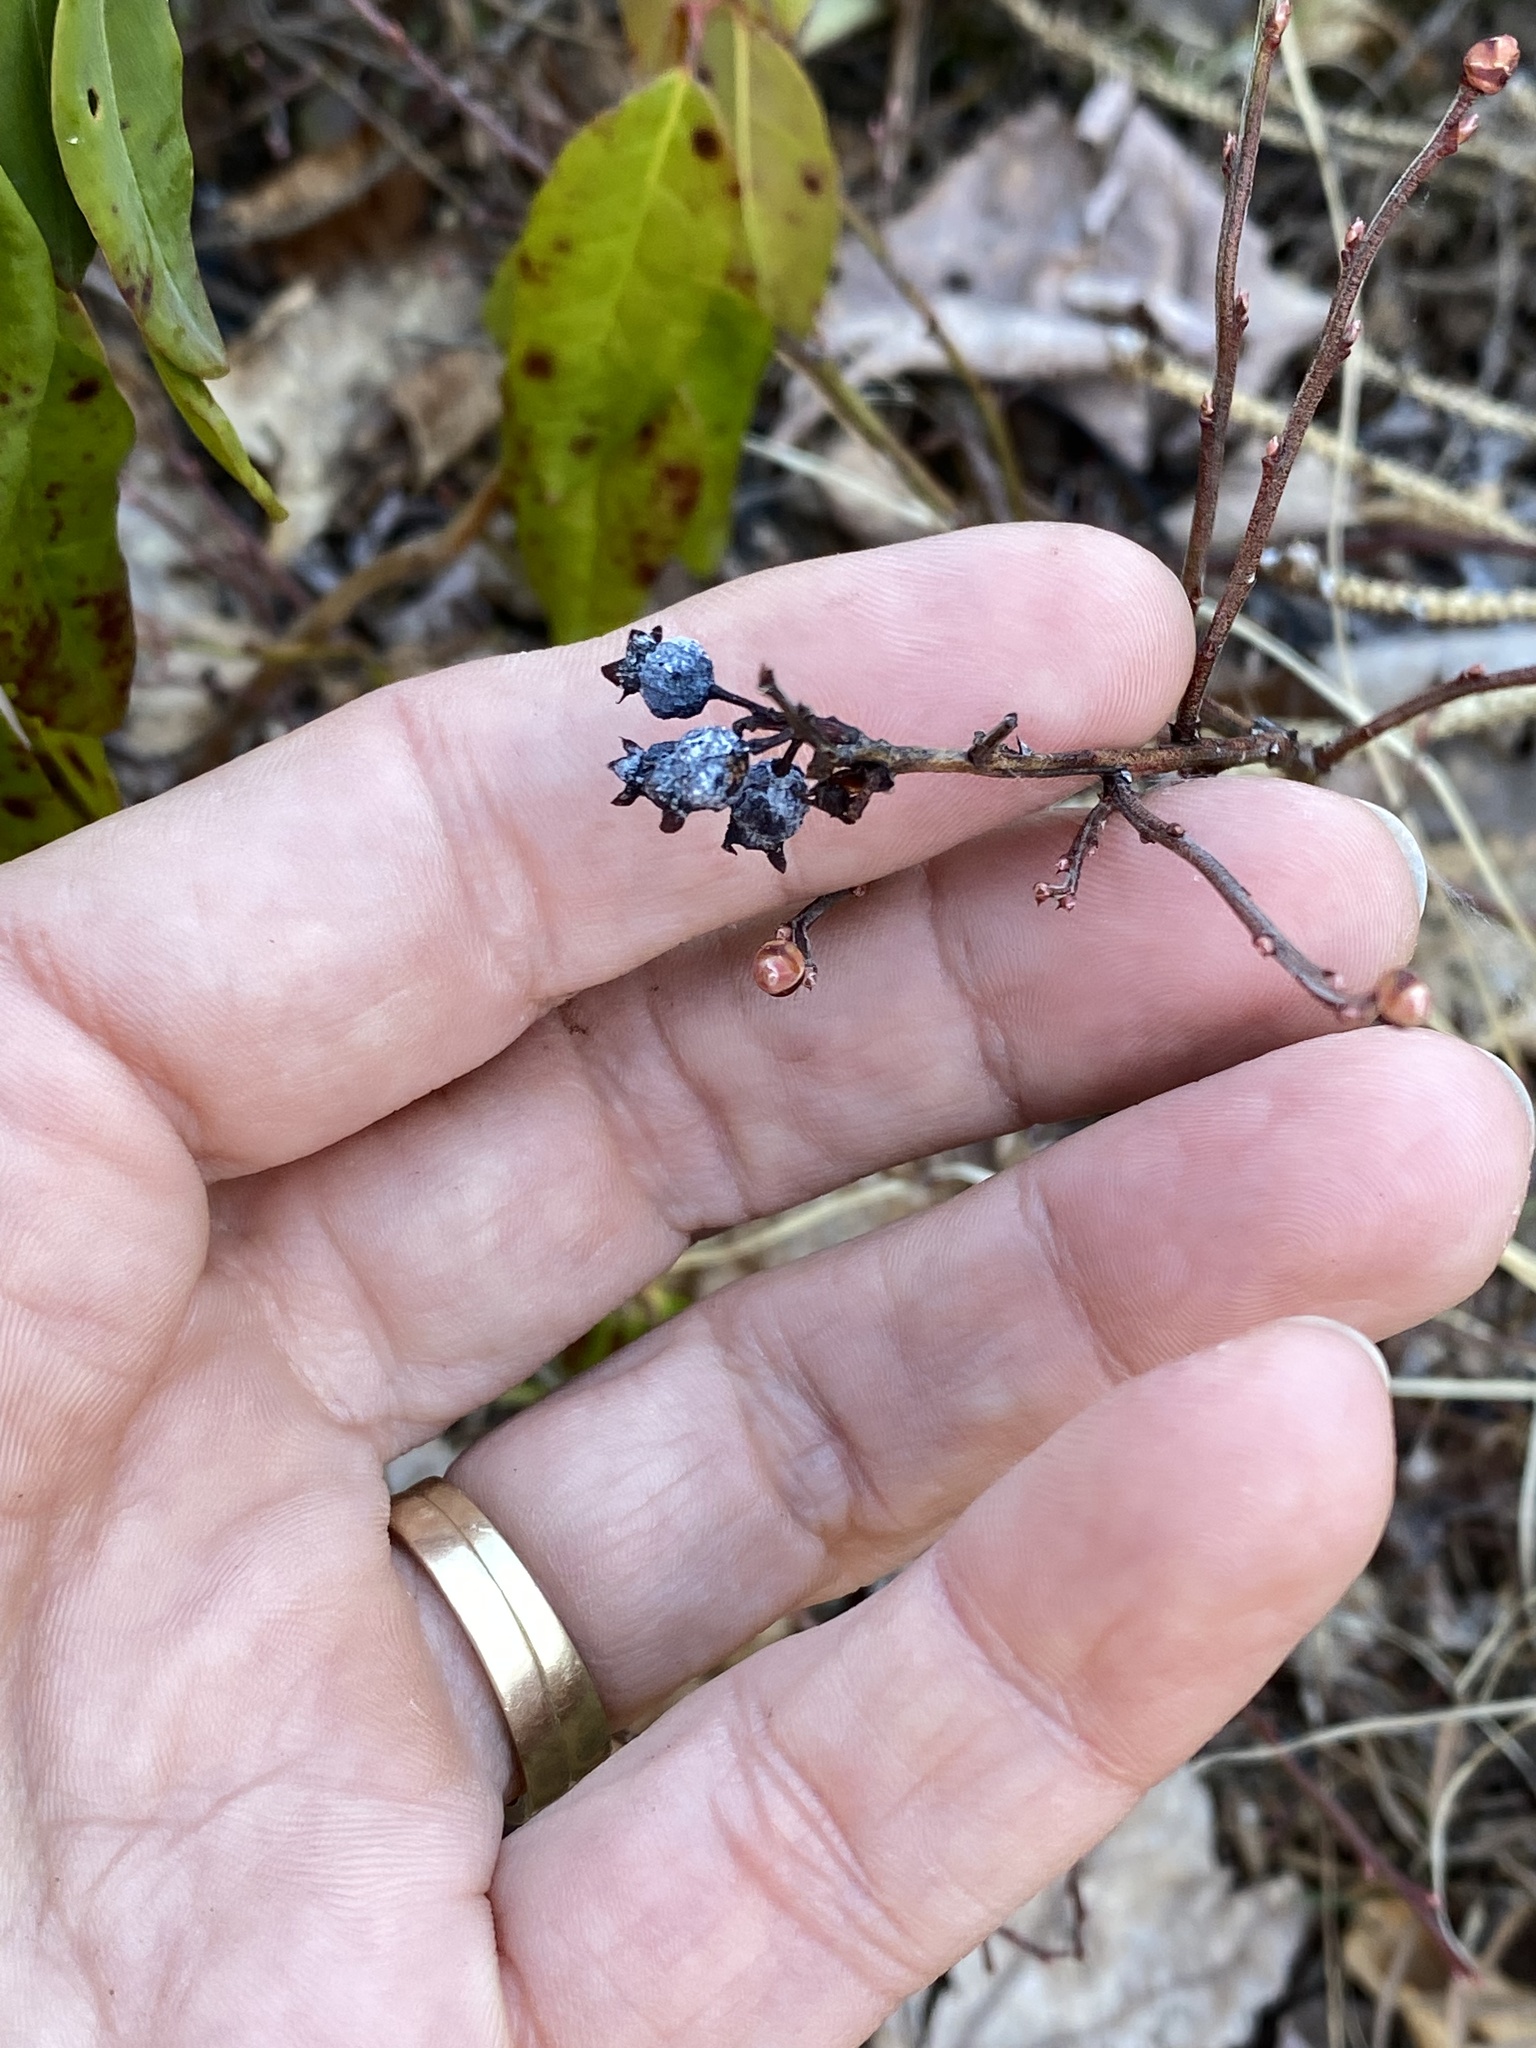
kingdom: Plantae
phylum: Tracheophyta
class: Magnoliopsida
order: Ericales
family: Ericaceae
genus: Vaccinium
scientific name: Vaccinium angustifolium
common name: Early lowbush blueberry
